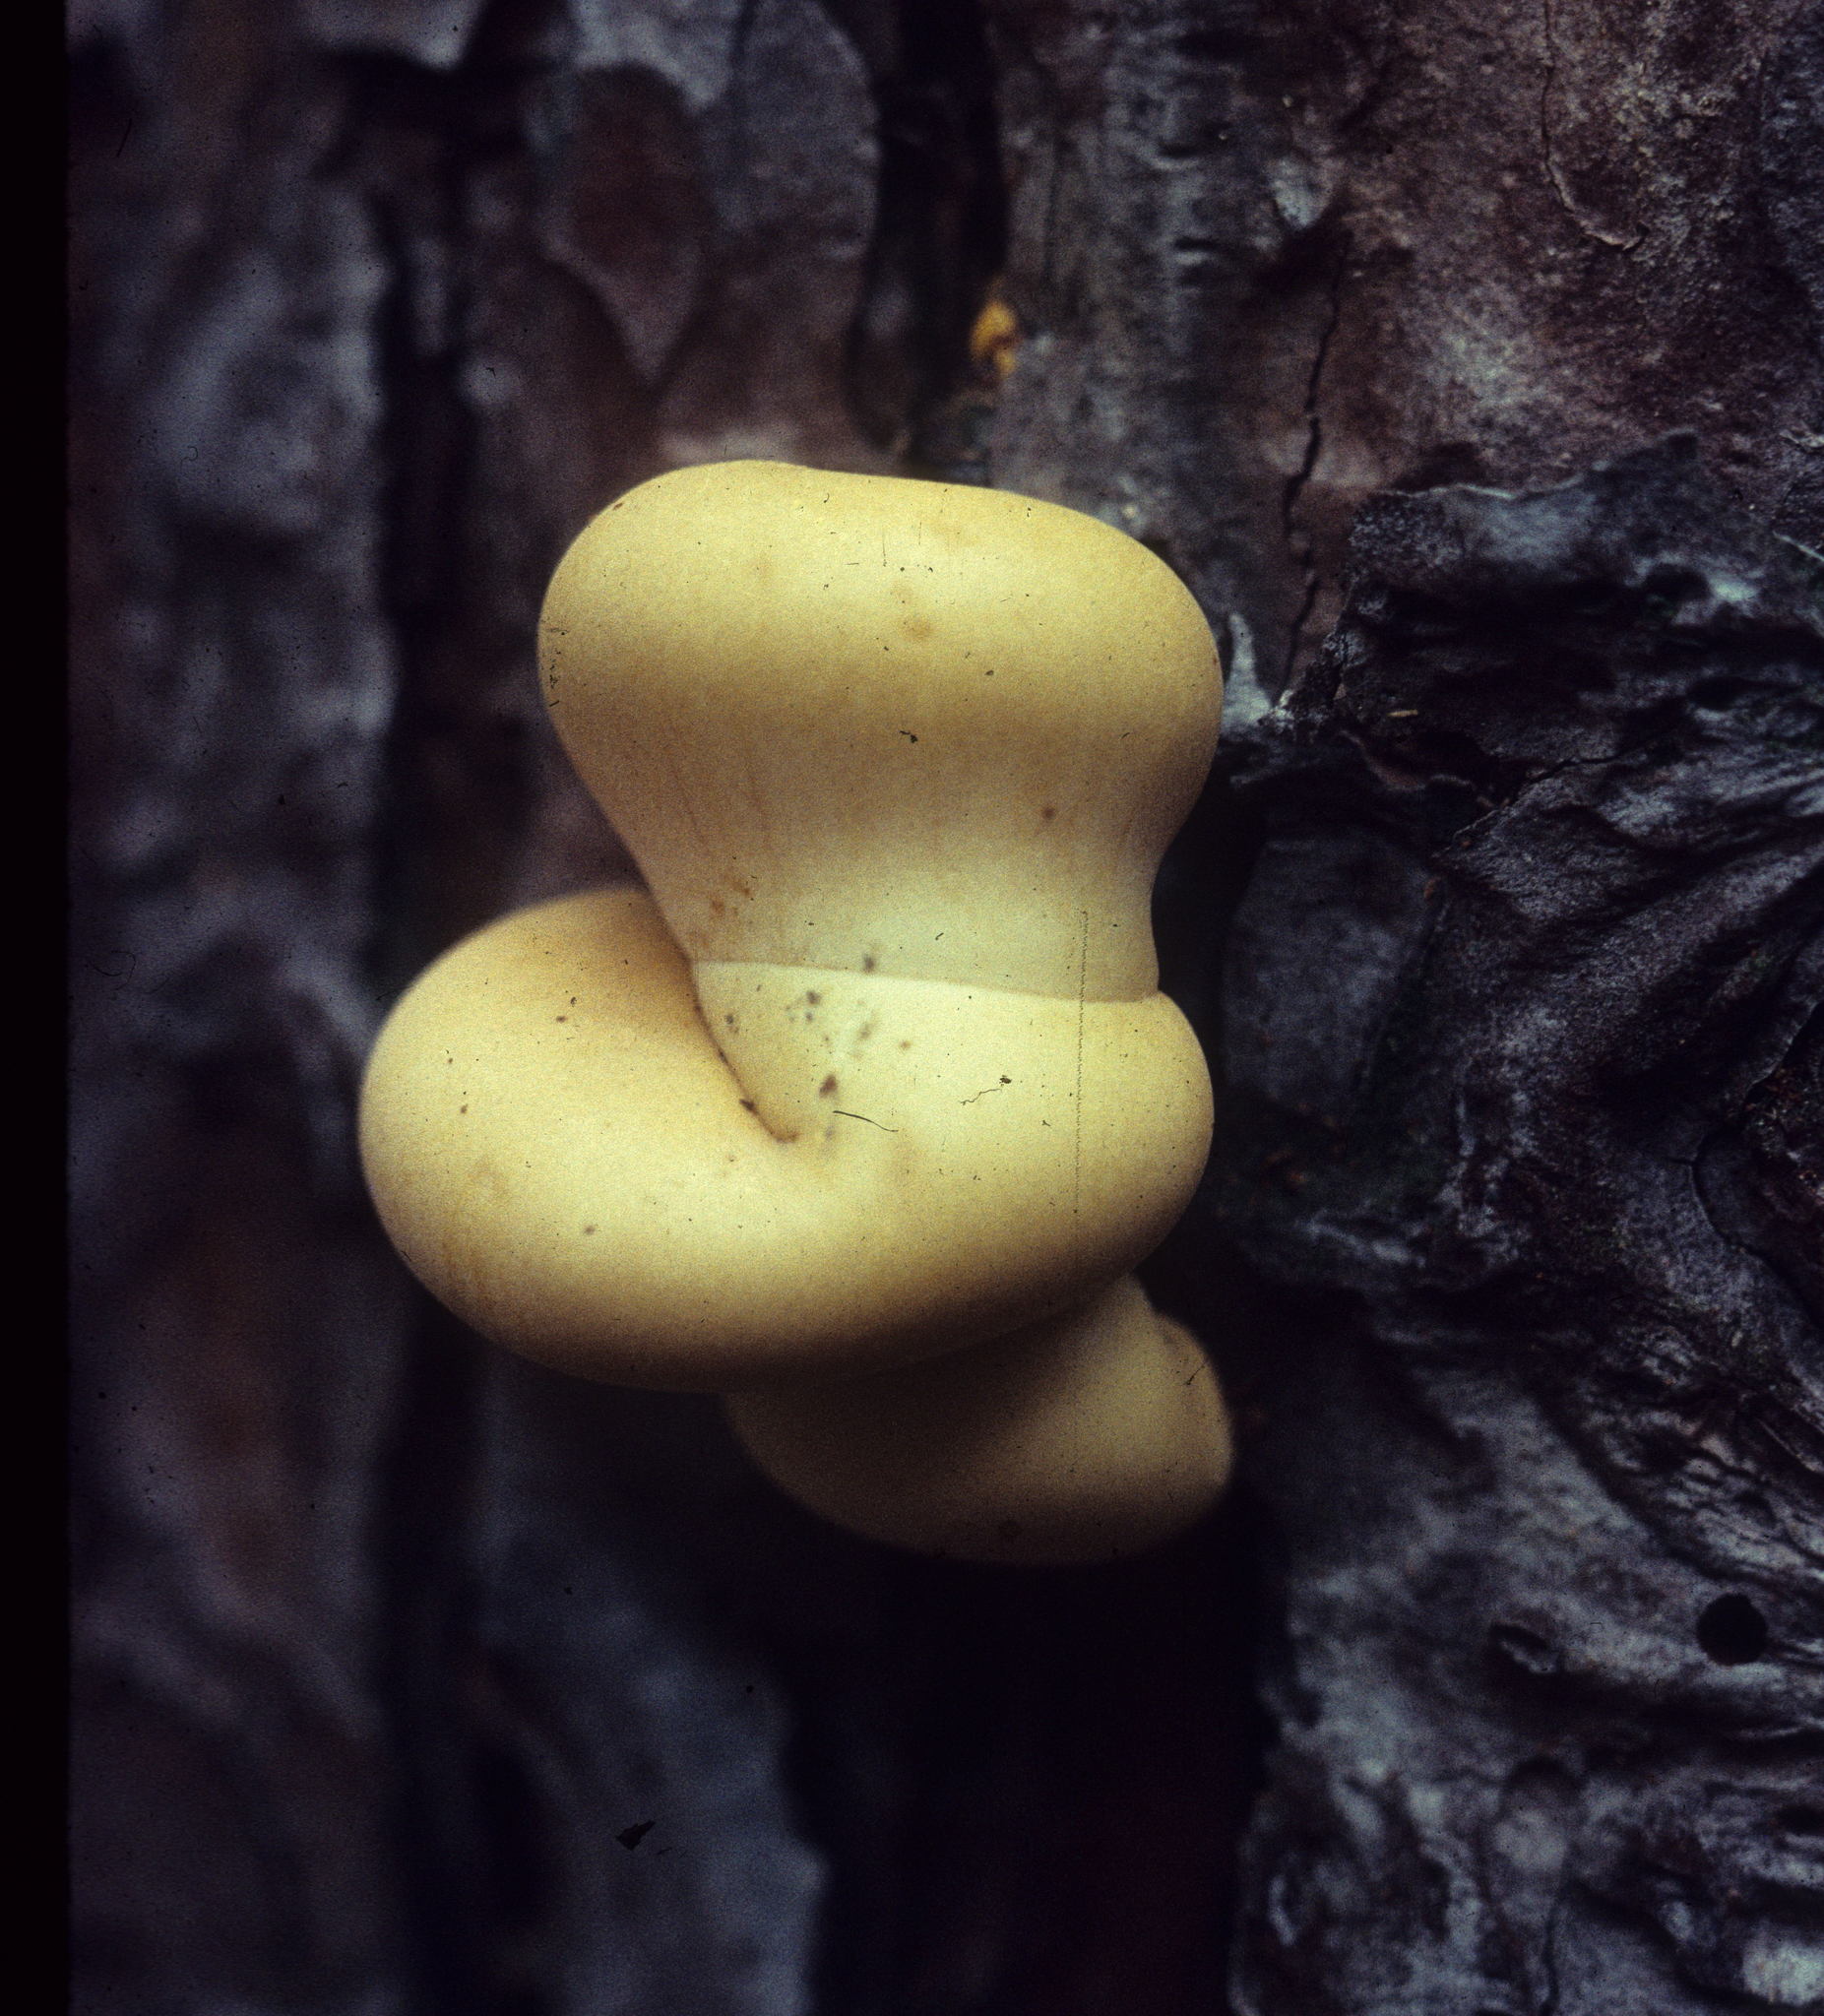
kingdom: Fungi
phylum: Basidiomycota
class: Agaricomycetes
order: Polyporales
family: Polyporaceae
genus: Cryptoporus
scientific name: Cryptoporus volvatus
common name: Veiled polypore
